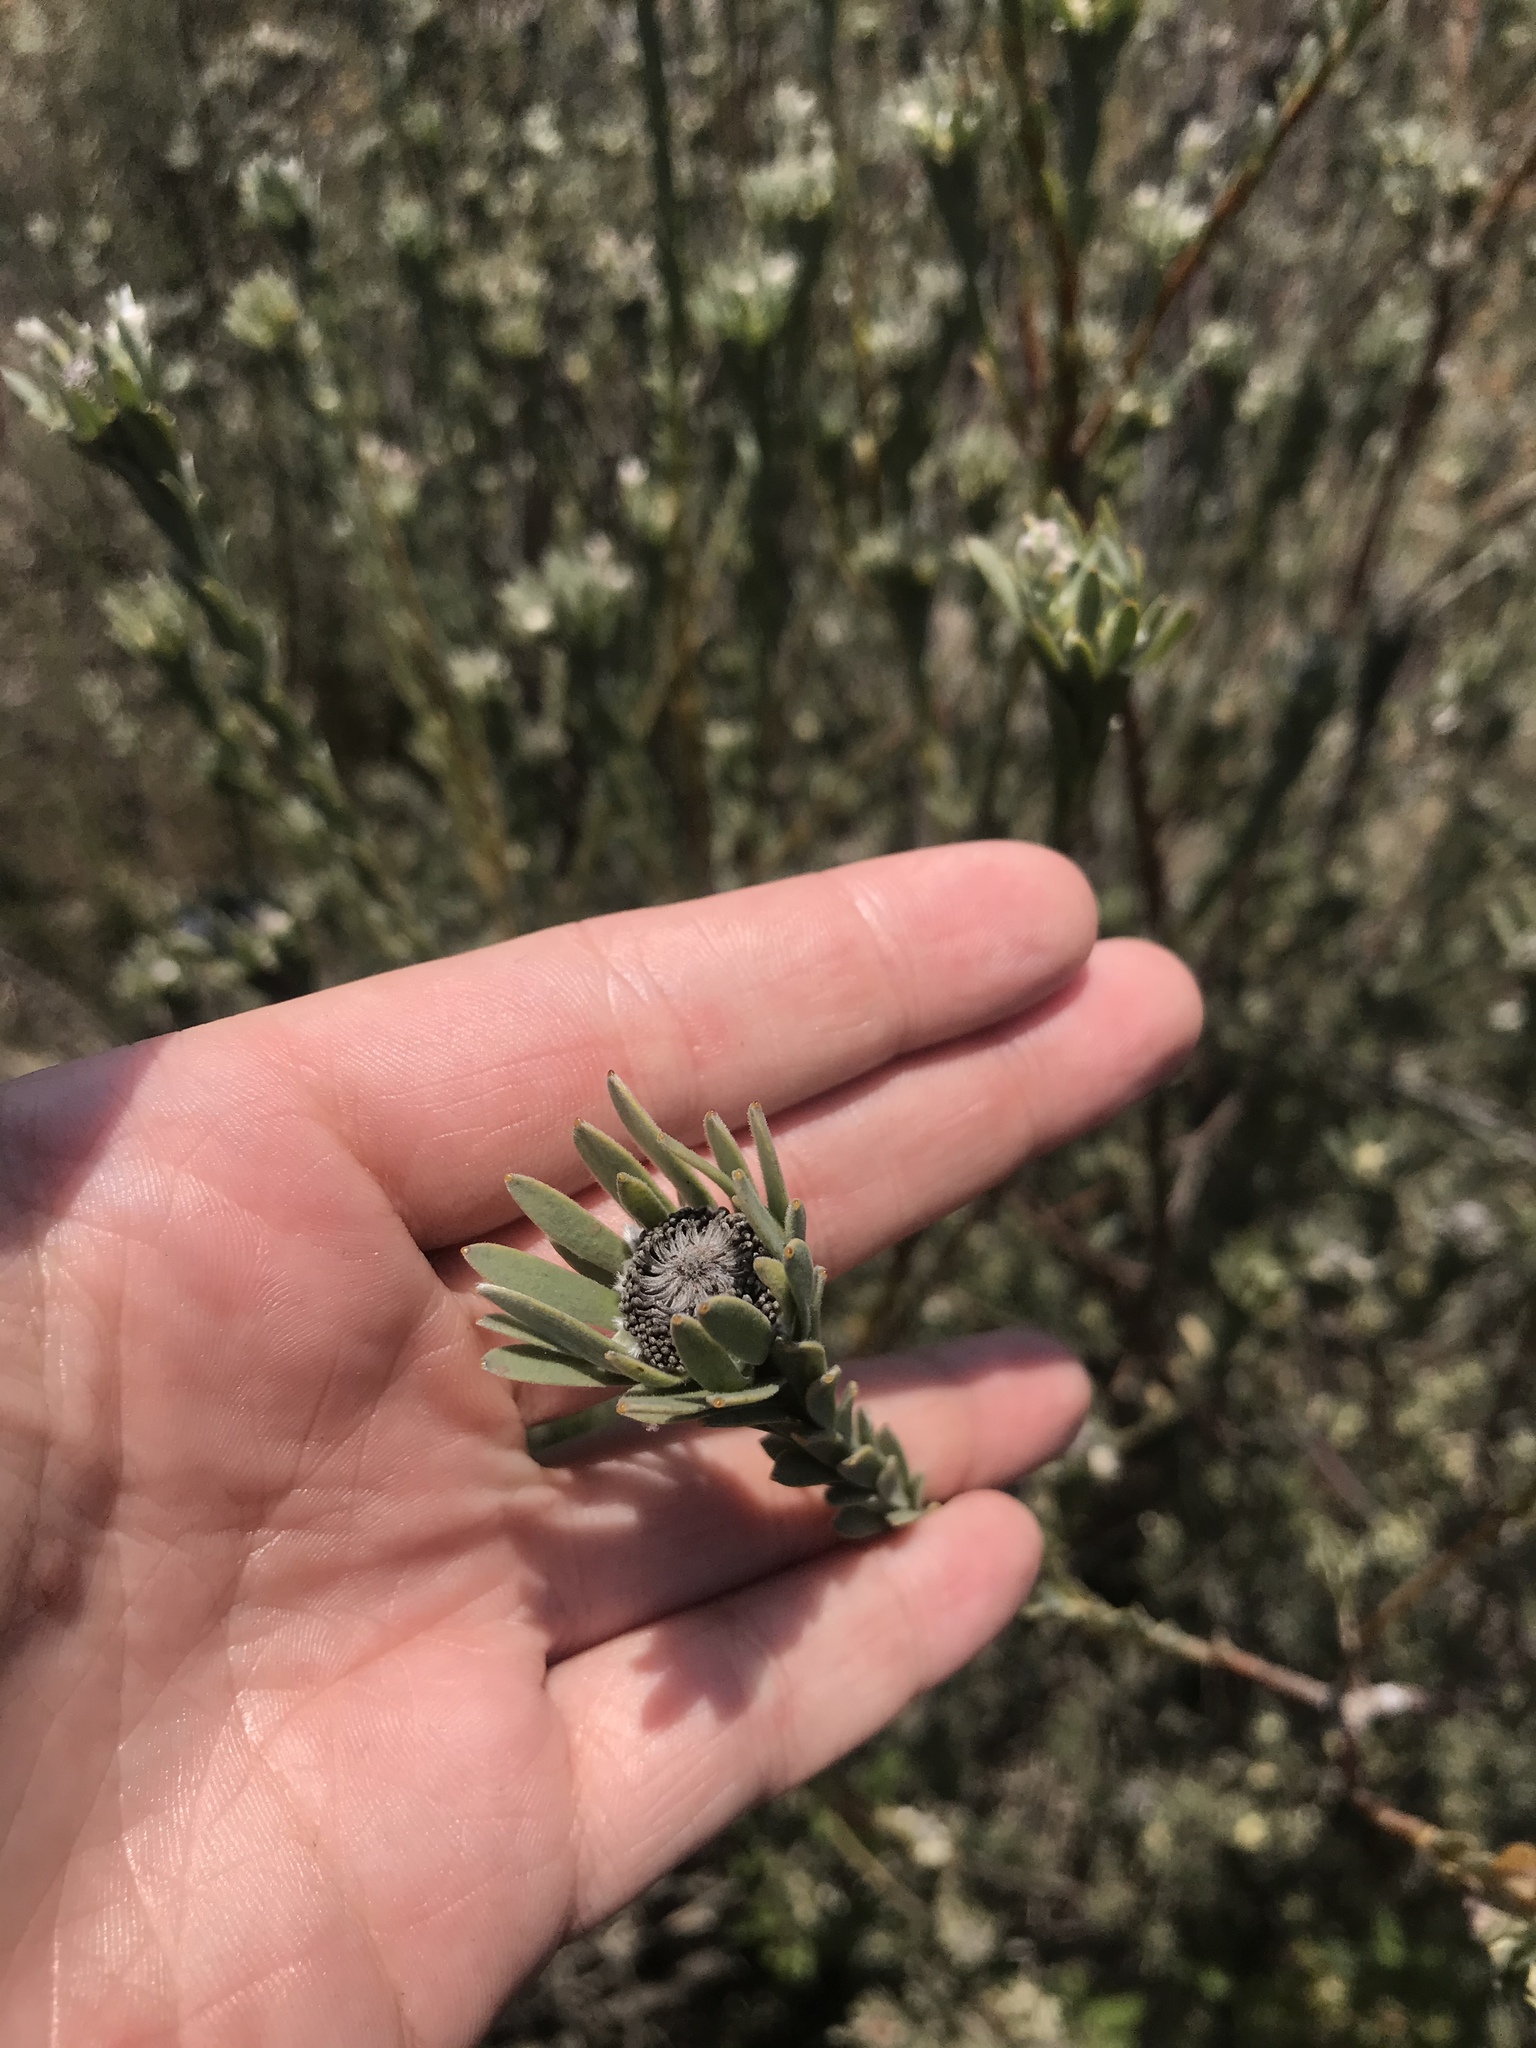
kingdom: Plantae
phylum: Tracheophyta
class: Magnoliopsida
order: Proteales
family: Proteaceae
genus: Leucadendron
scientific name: Leucadendron verticillatum
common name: Klapmuts conebush
